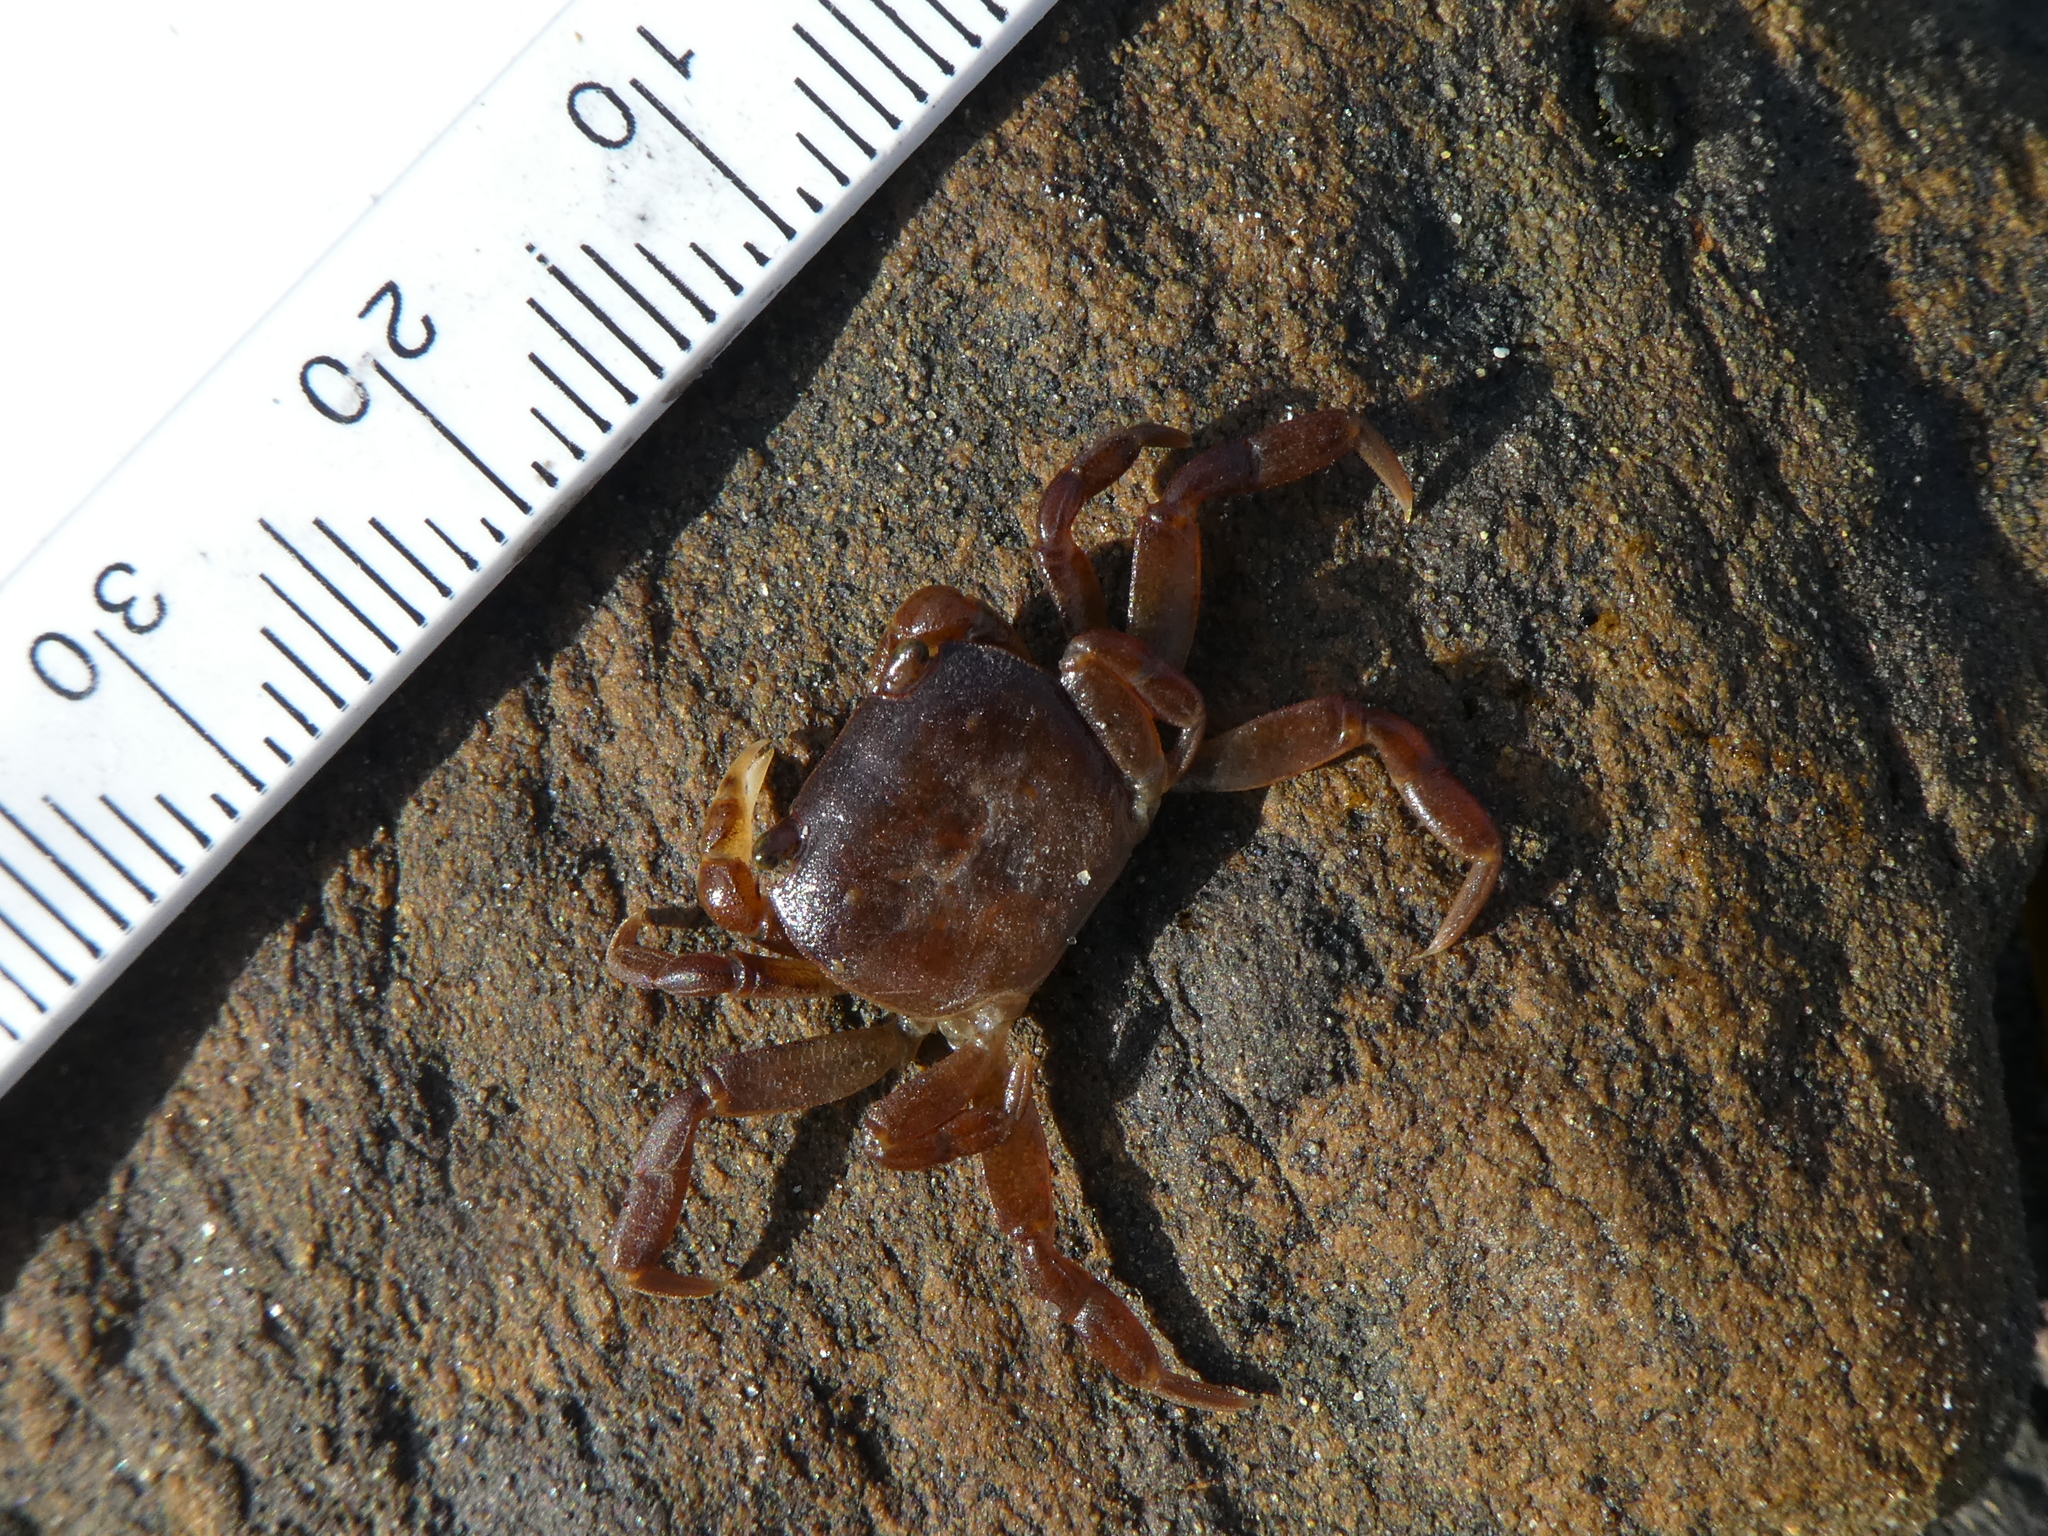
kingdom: Animalia
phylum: Arthropoda
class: Malacostraca
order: Decapoda
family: Varunidae
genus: Cyclograpsus
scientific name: Cyclograpsus lavauxi
